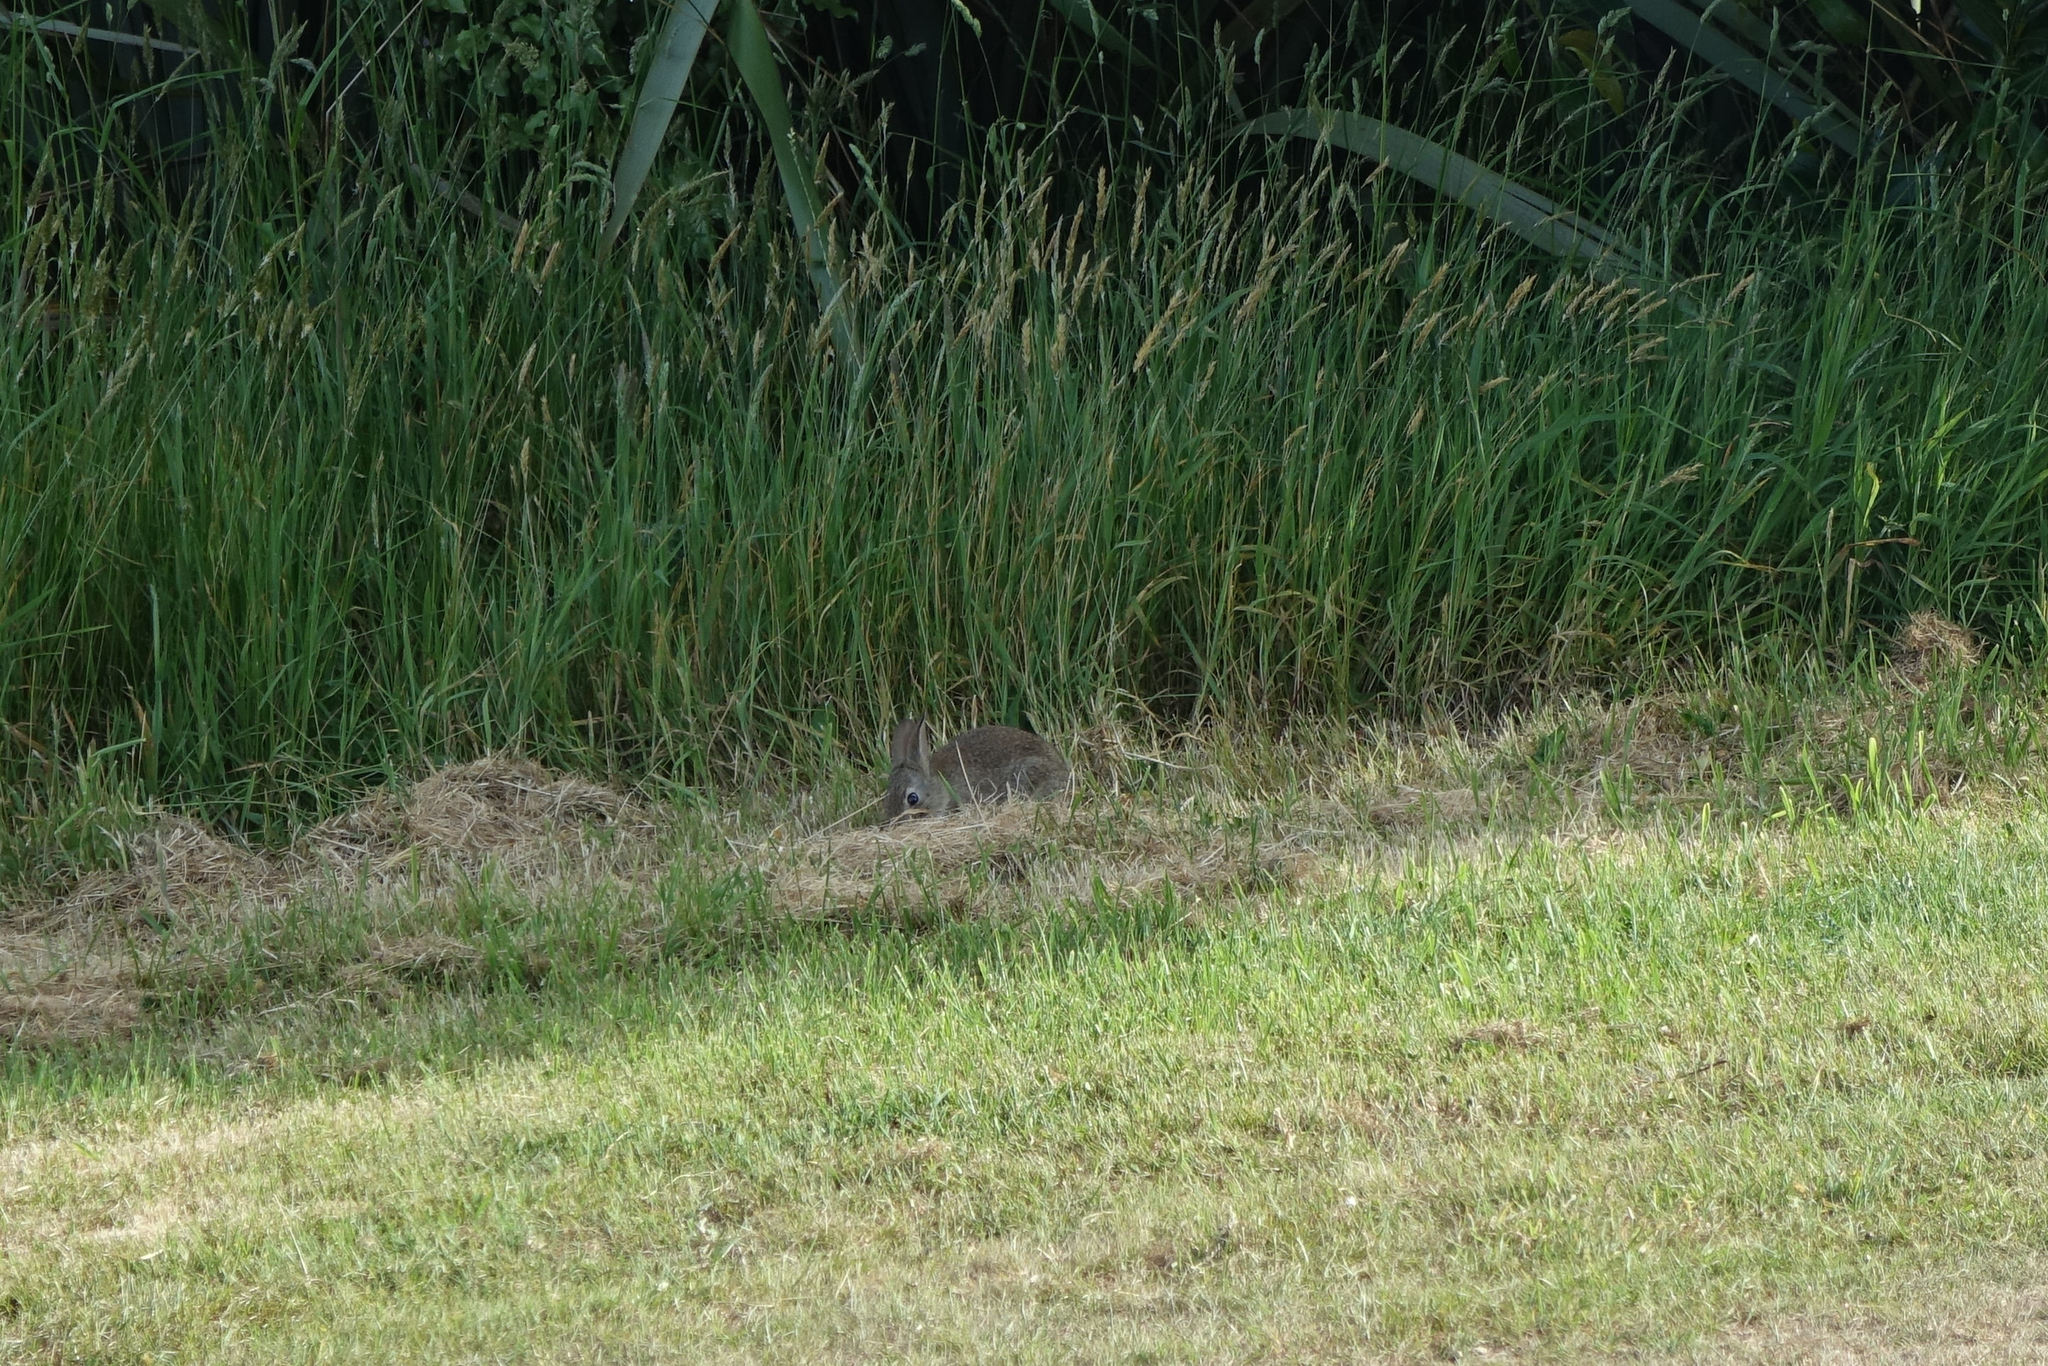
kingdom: Animalia
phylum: Chordata
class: Mammalia
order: Lagomorpha
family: Leporidae
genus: Oryctolagus
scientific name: Oryctolagus cuniculus
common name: European rabbit
